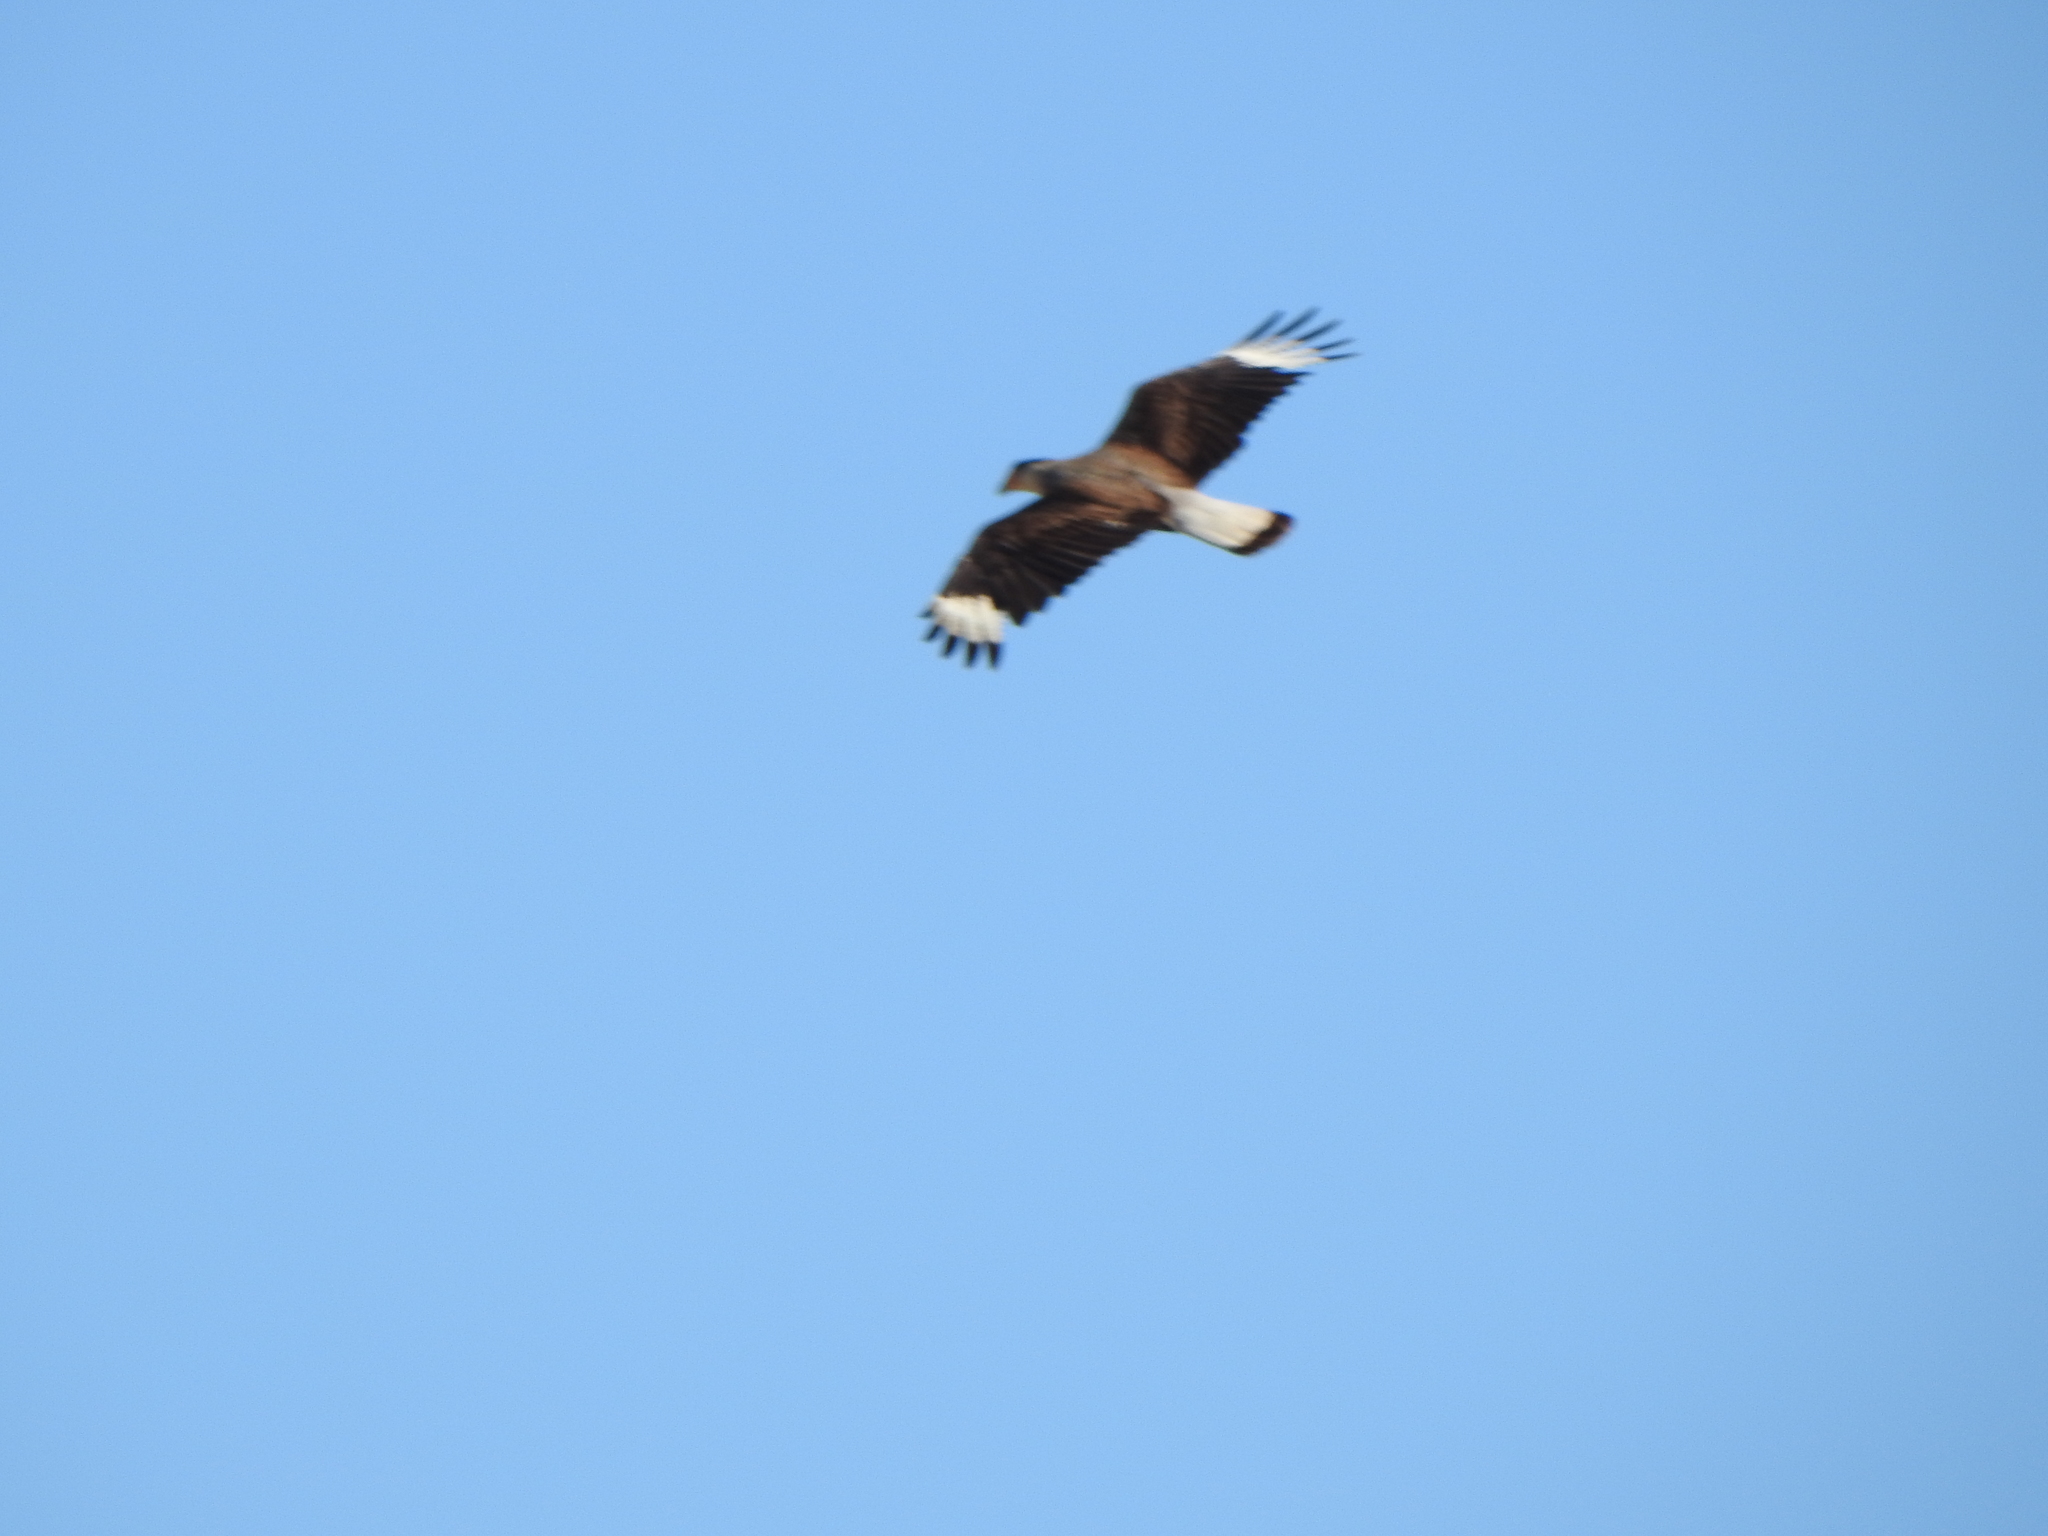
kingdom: Animalia
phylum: Chordata
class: Aves
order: Falconiformes
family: Falconidae
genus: Caracara
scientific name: Caracara plancus
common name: Southern caracara
